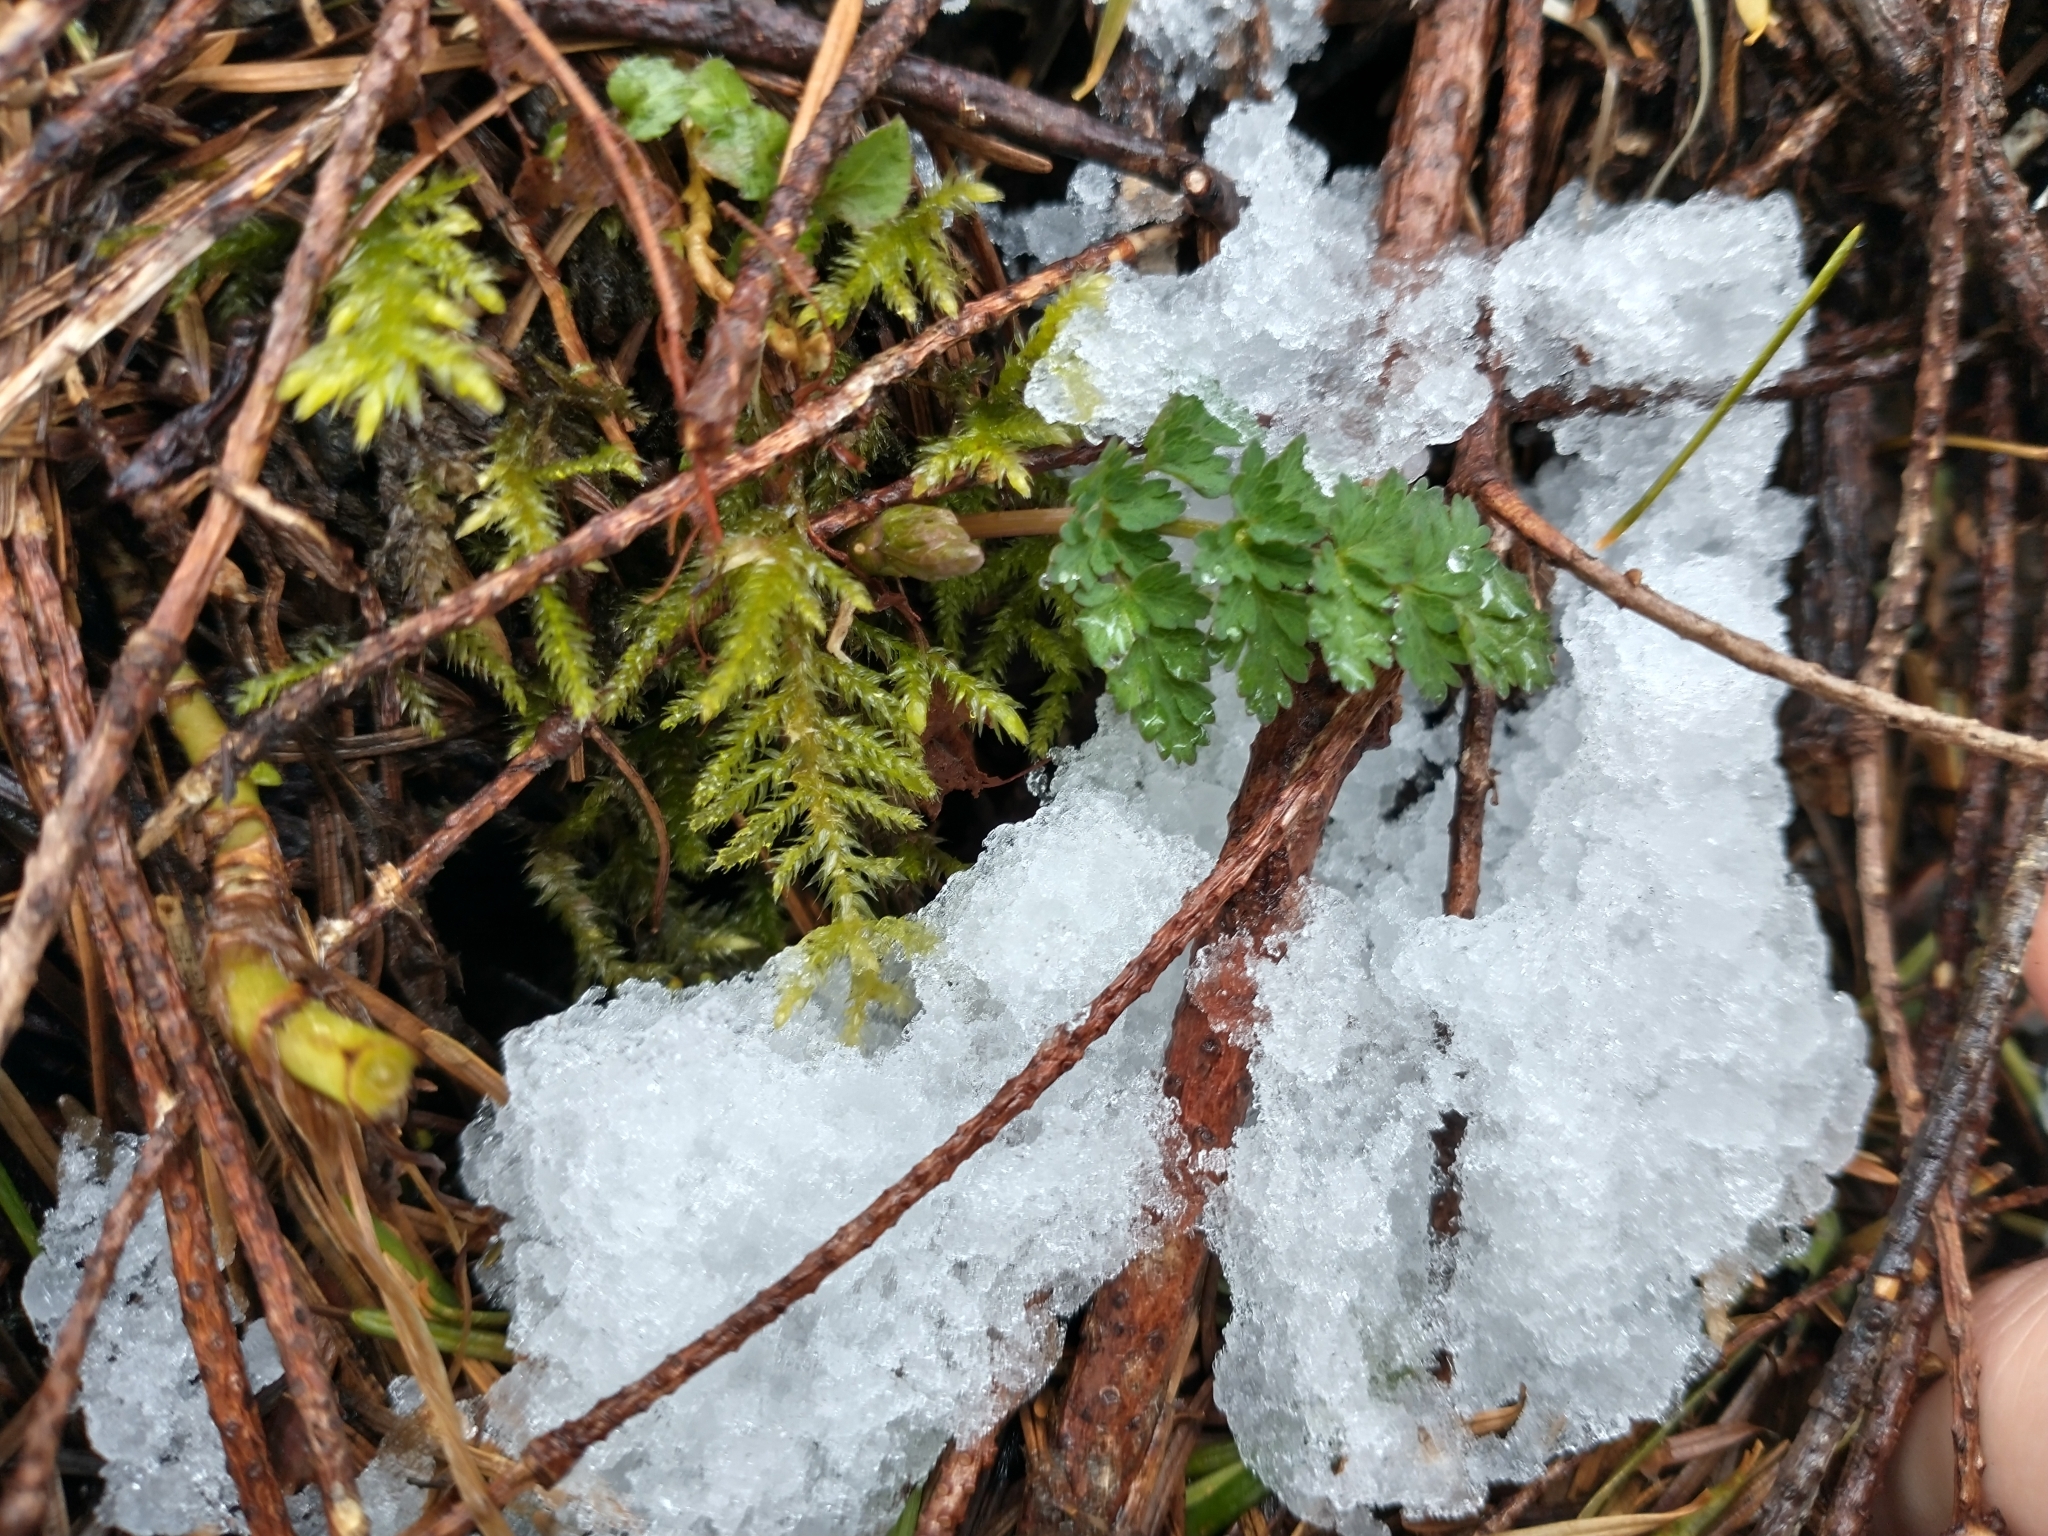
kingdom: Plantae
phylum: Tracheophyta
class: Magnoliopsida
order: Apiales
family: Apiaceae
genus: Lomatium
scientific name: Lomatium martindalei
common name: Cascade desert-parsley
